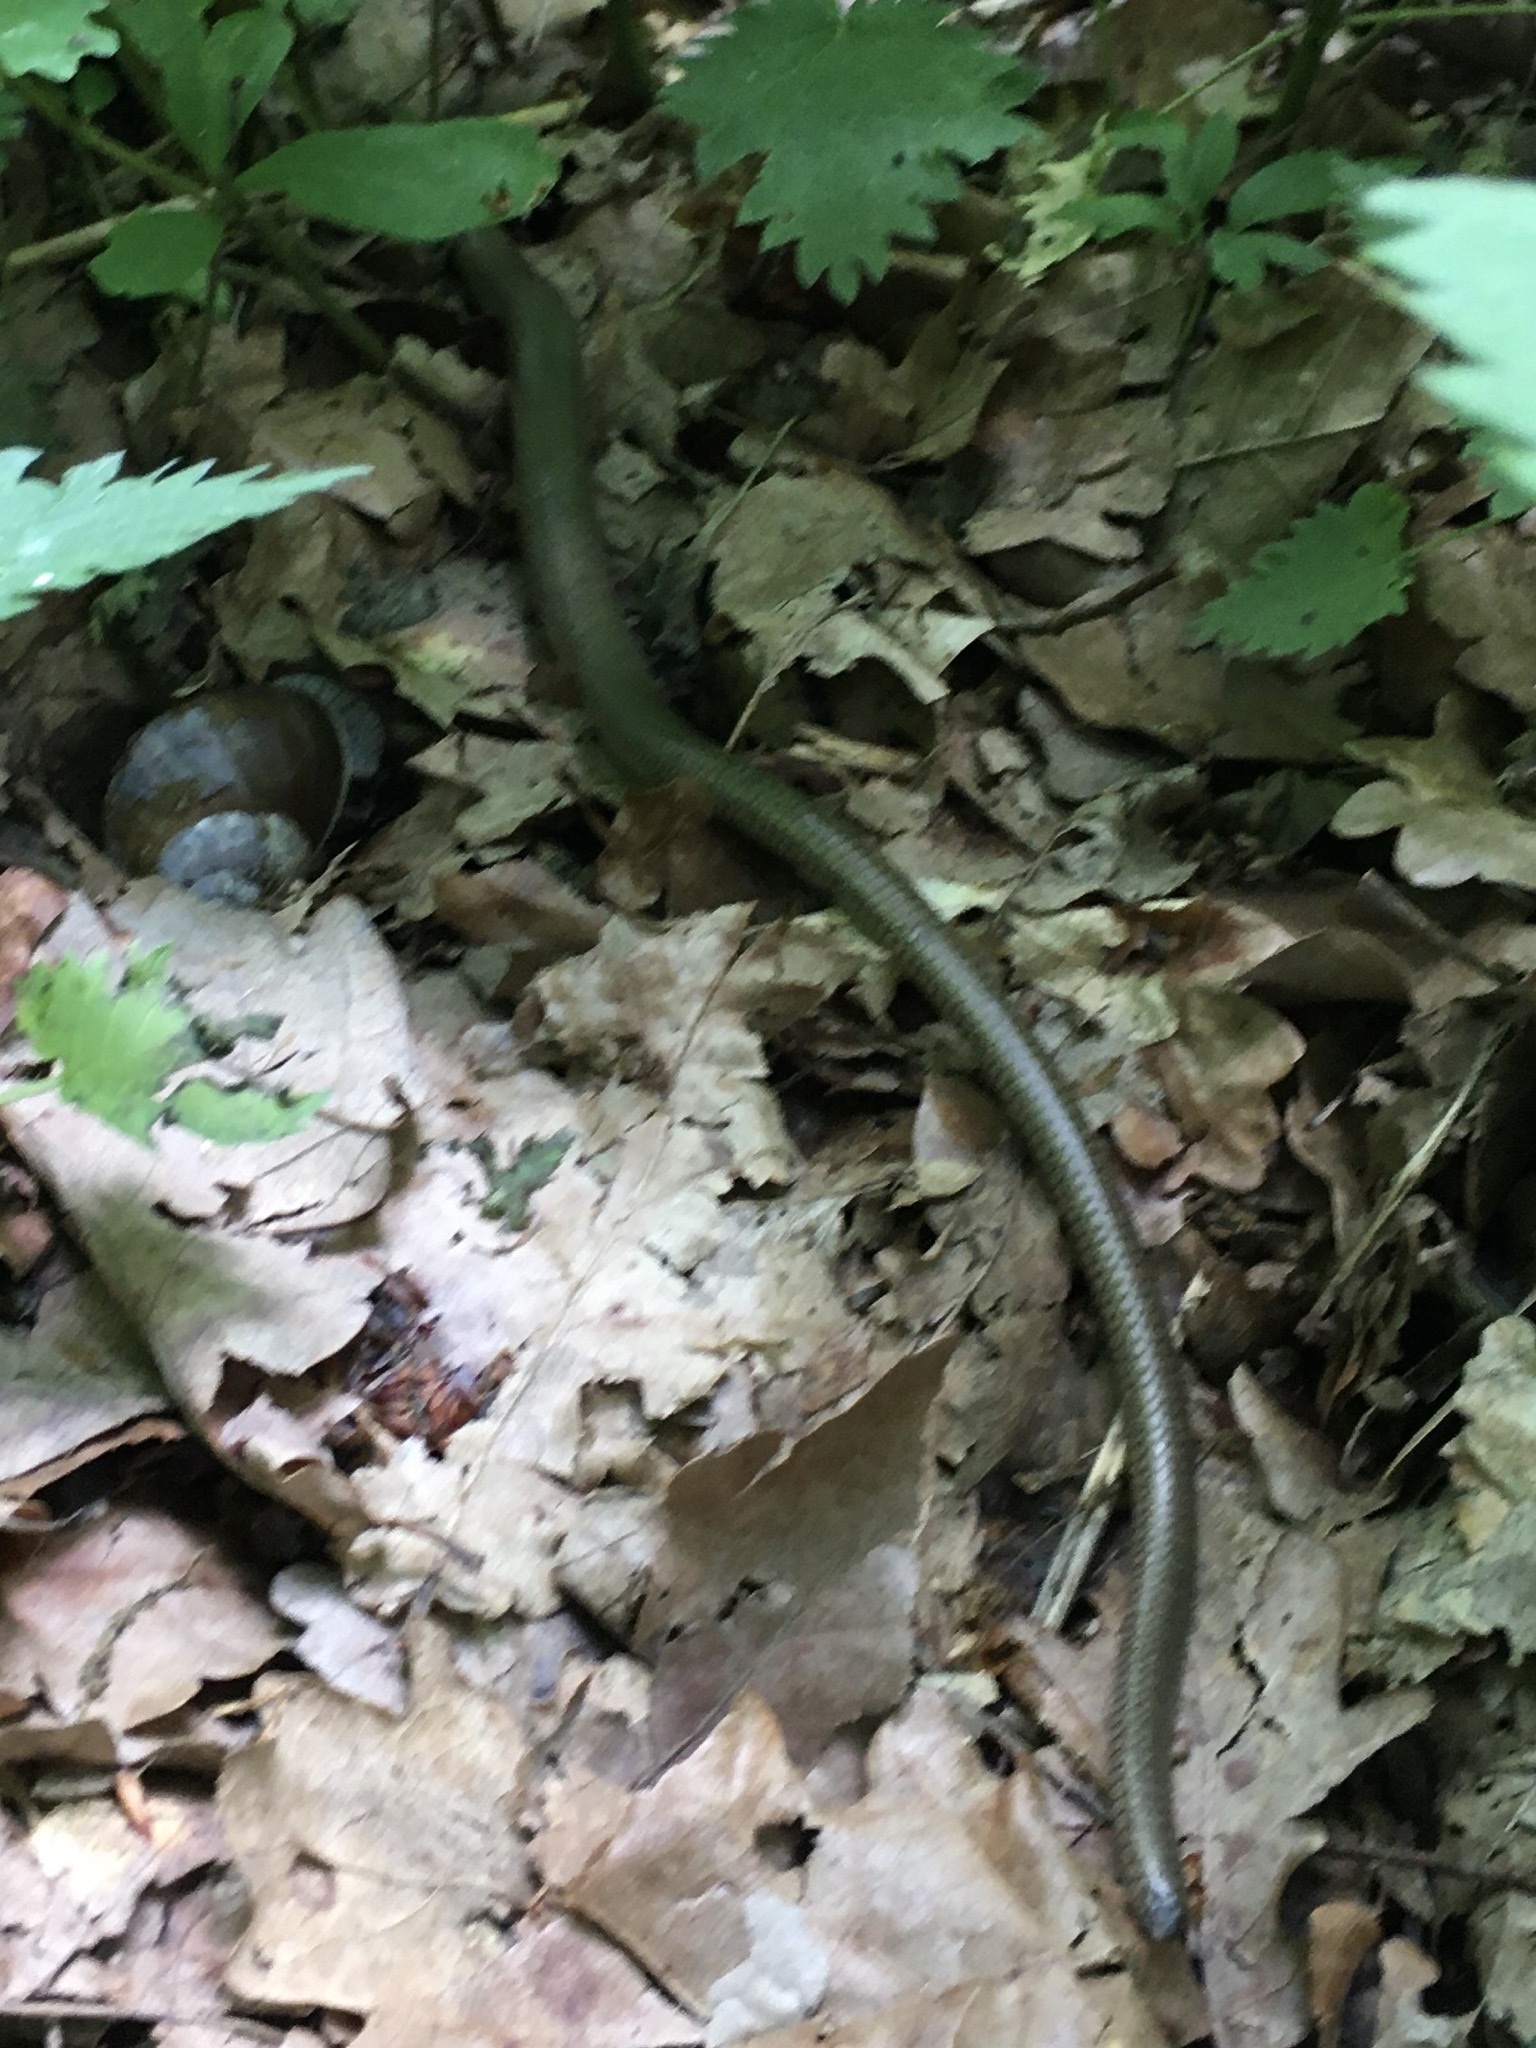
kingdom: Animalia
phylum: Chordata
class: Squamata
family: Anguidae
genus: Anguis
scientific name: Anguis fragilis
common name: Slow worm
